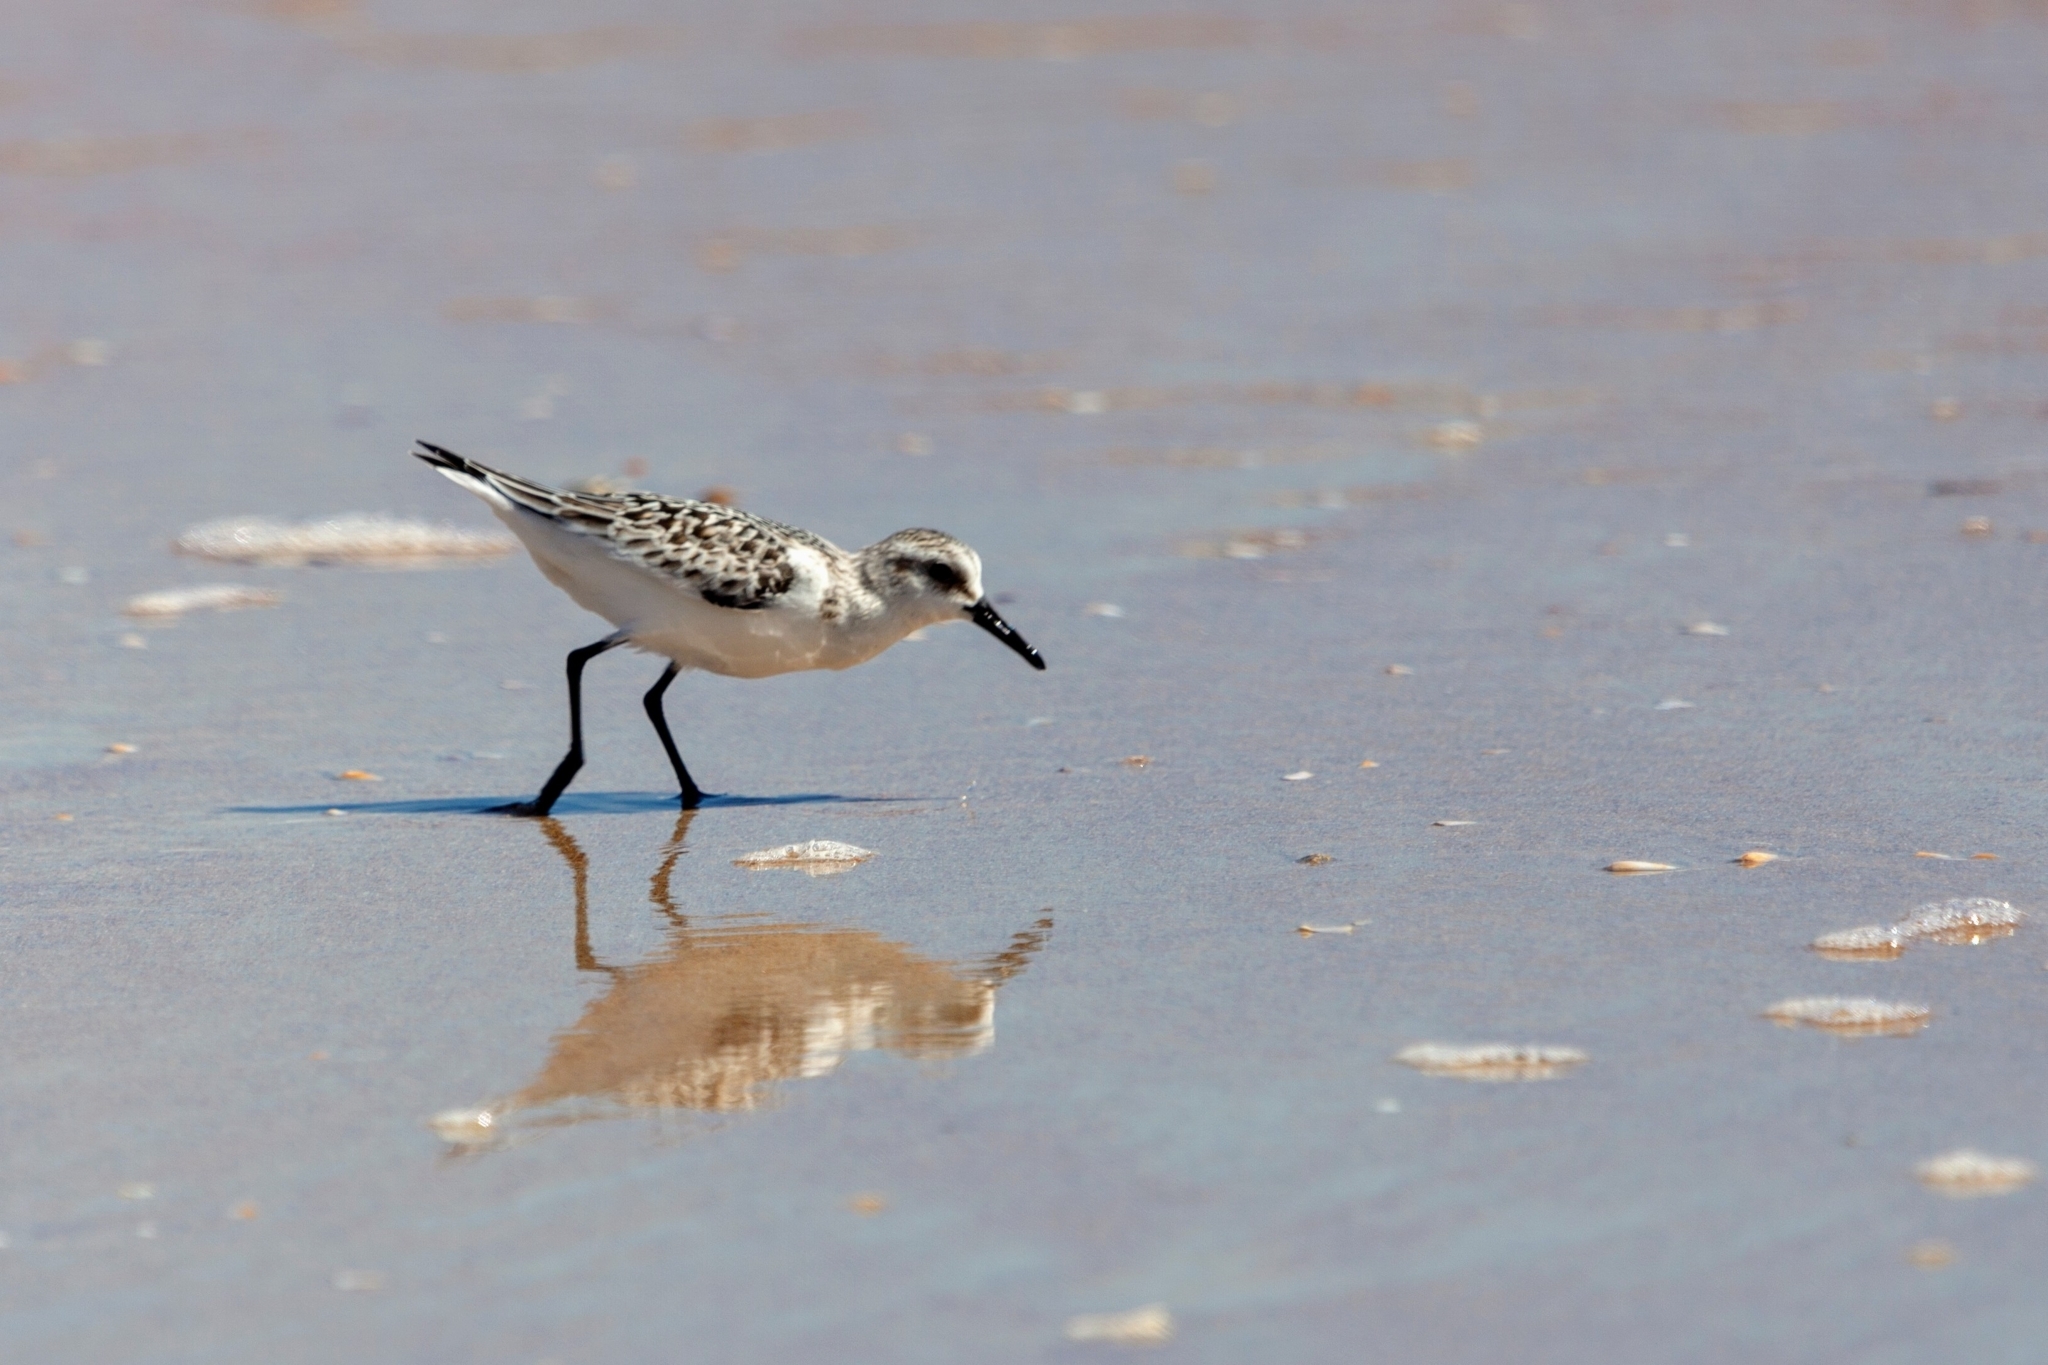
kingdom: Animalia
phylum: Chordata
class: Aves
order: Charadriiformes
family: Scolopacidae
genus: Calidris
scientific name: Calidris alba
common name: Sanderling
